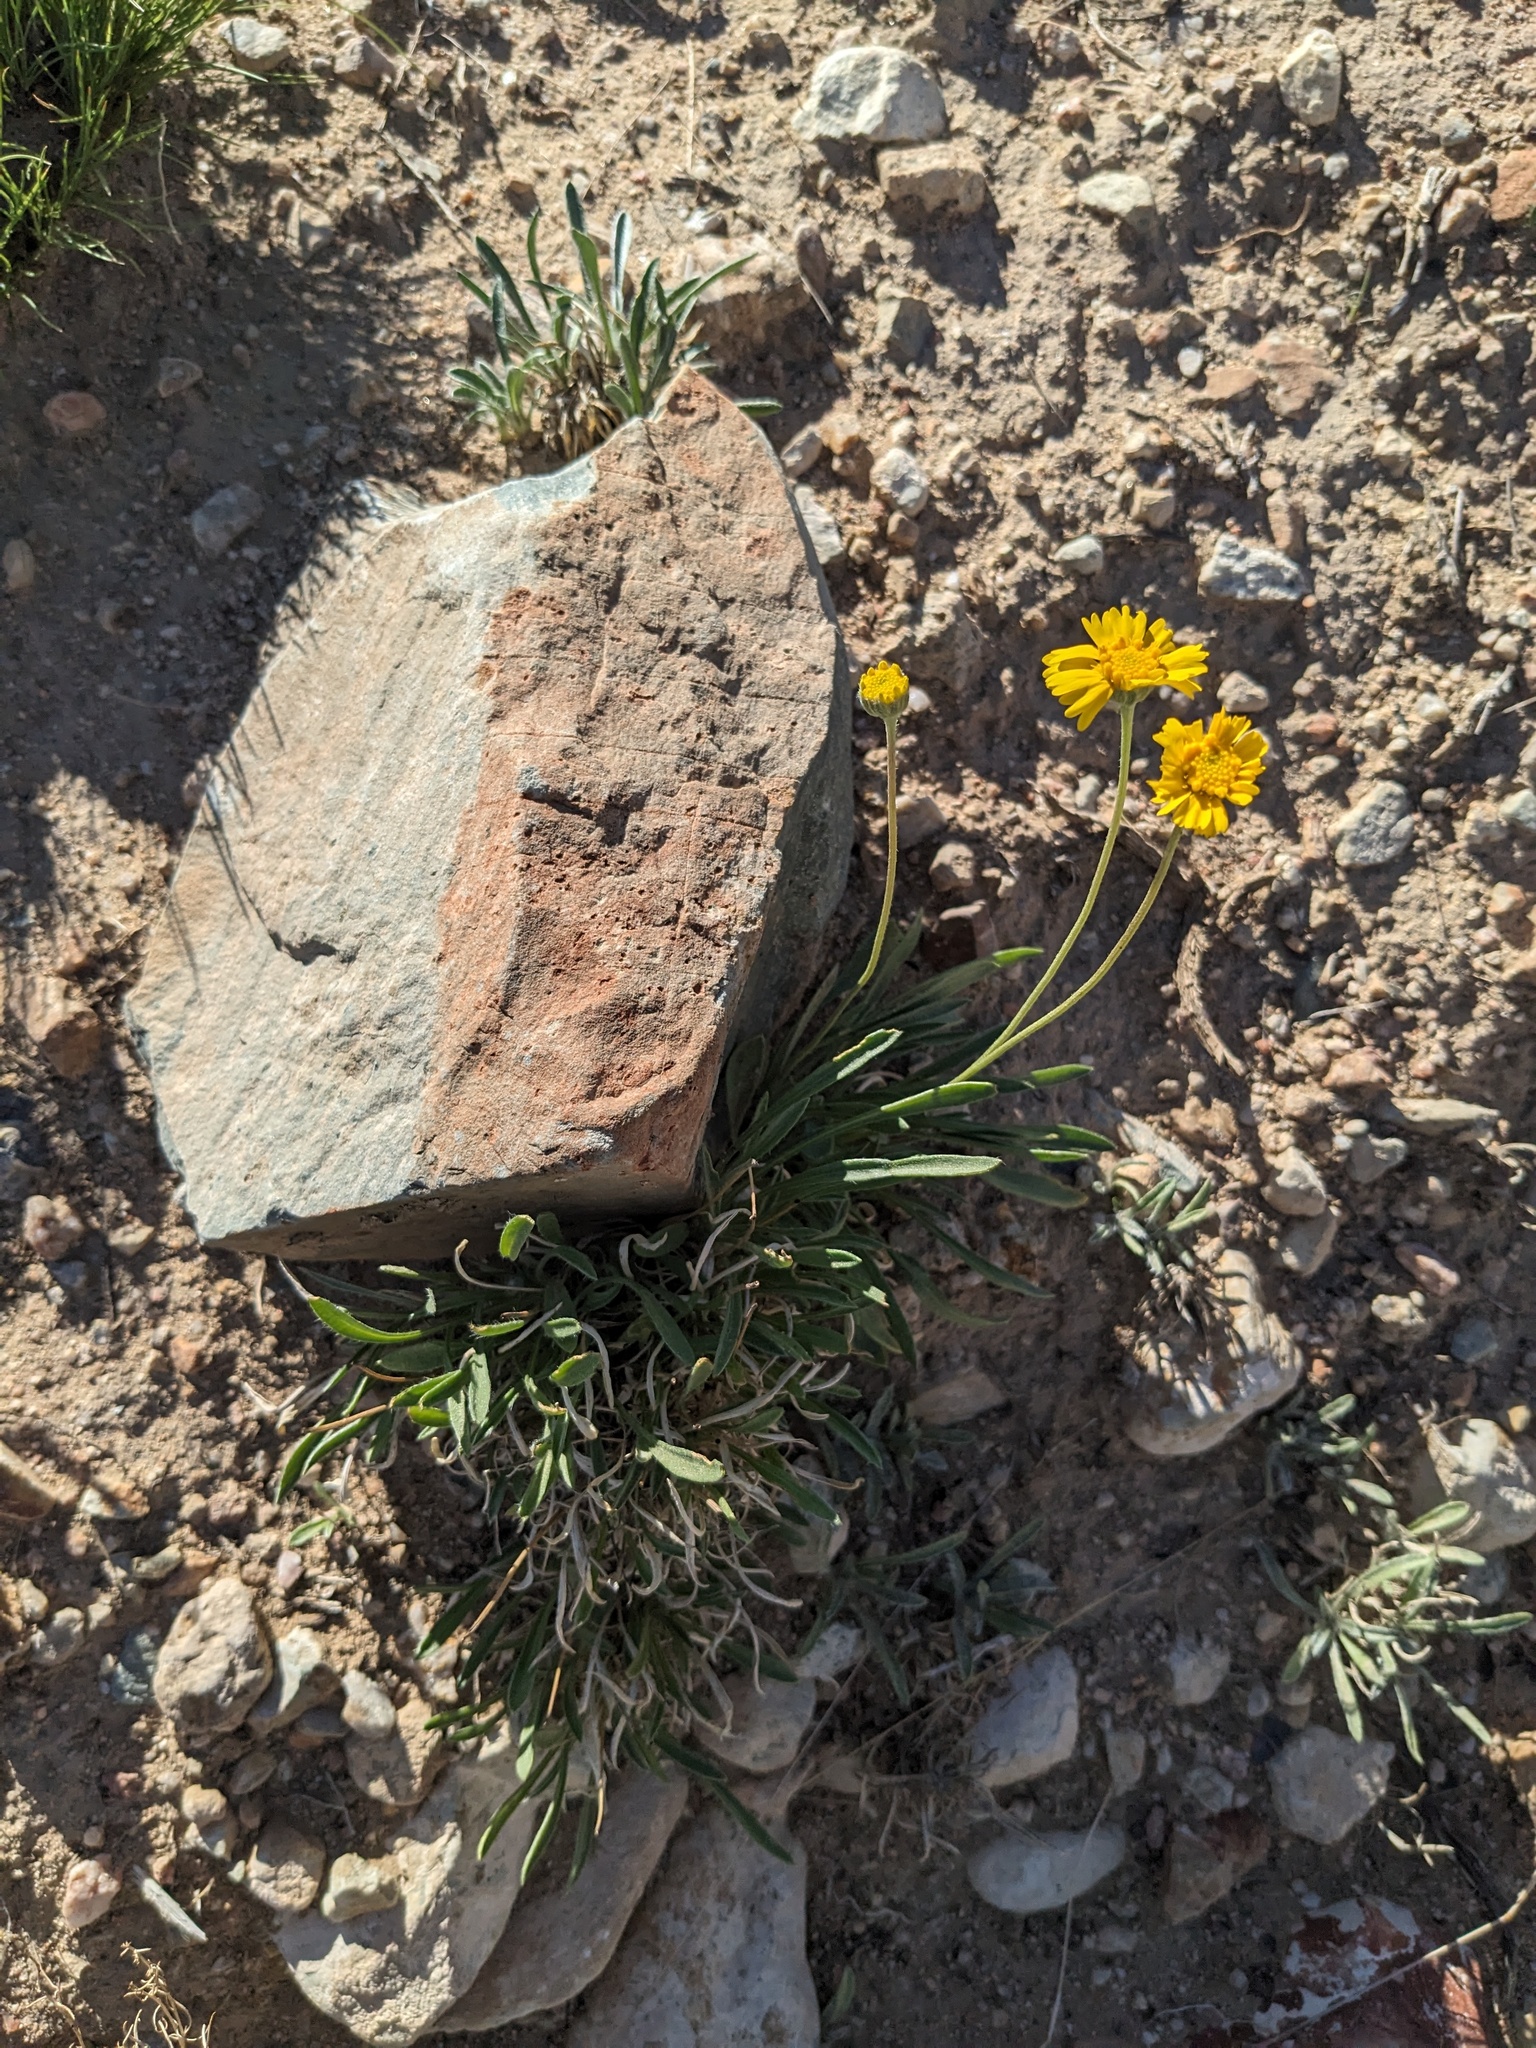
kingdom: Plantae
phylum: Tracheophyta
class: Magnoliopsida
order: Asterales
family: Asteraceae
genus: Tetraneuris
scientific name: Tetraneuris acaulis
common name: Butte marigold
